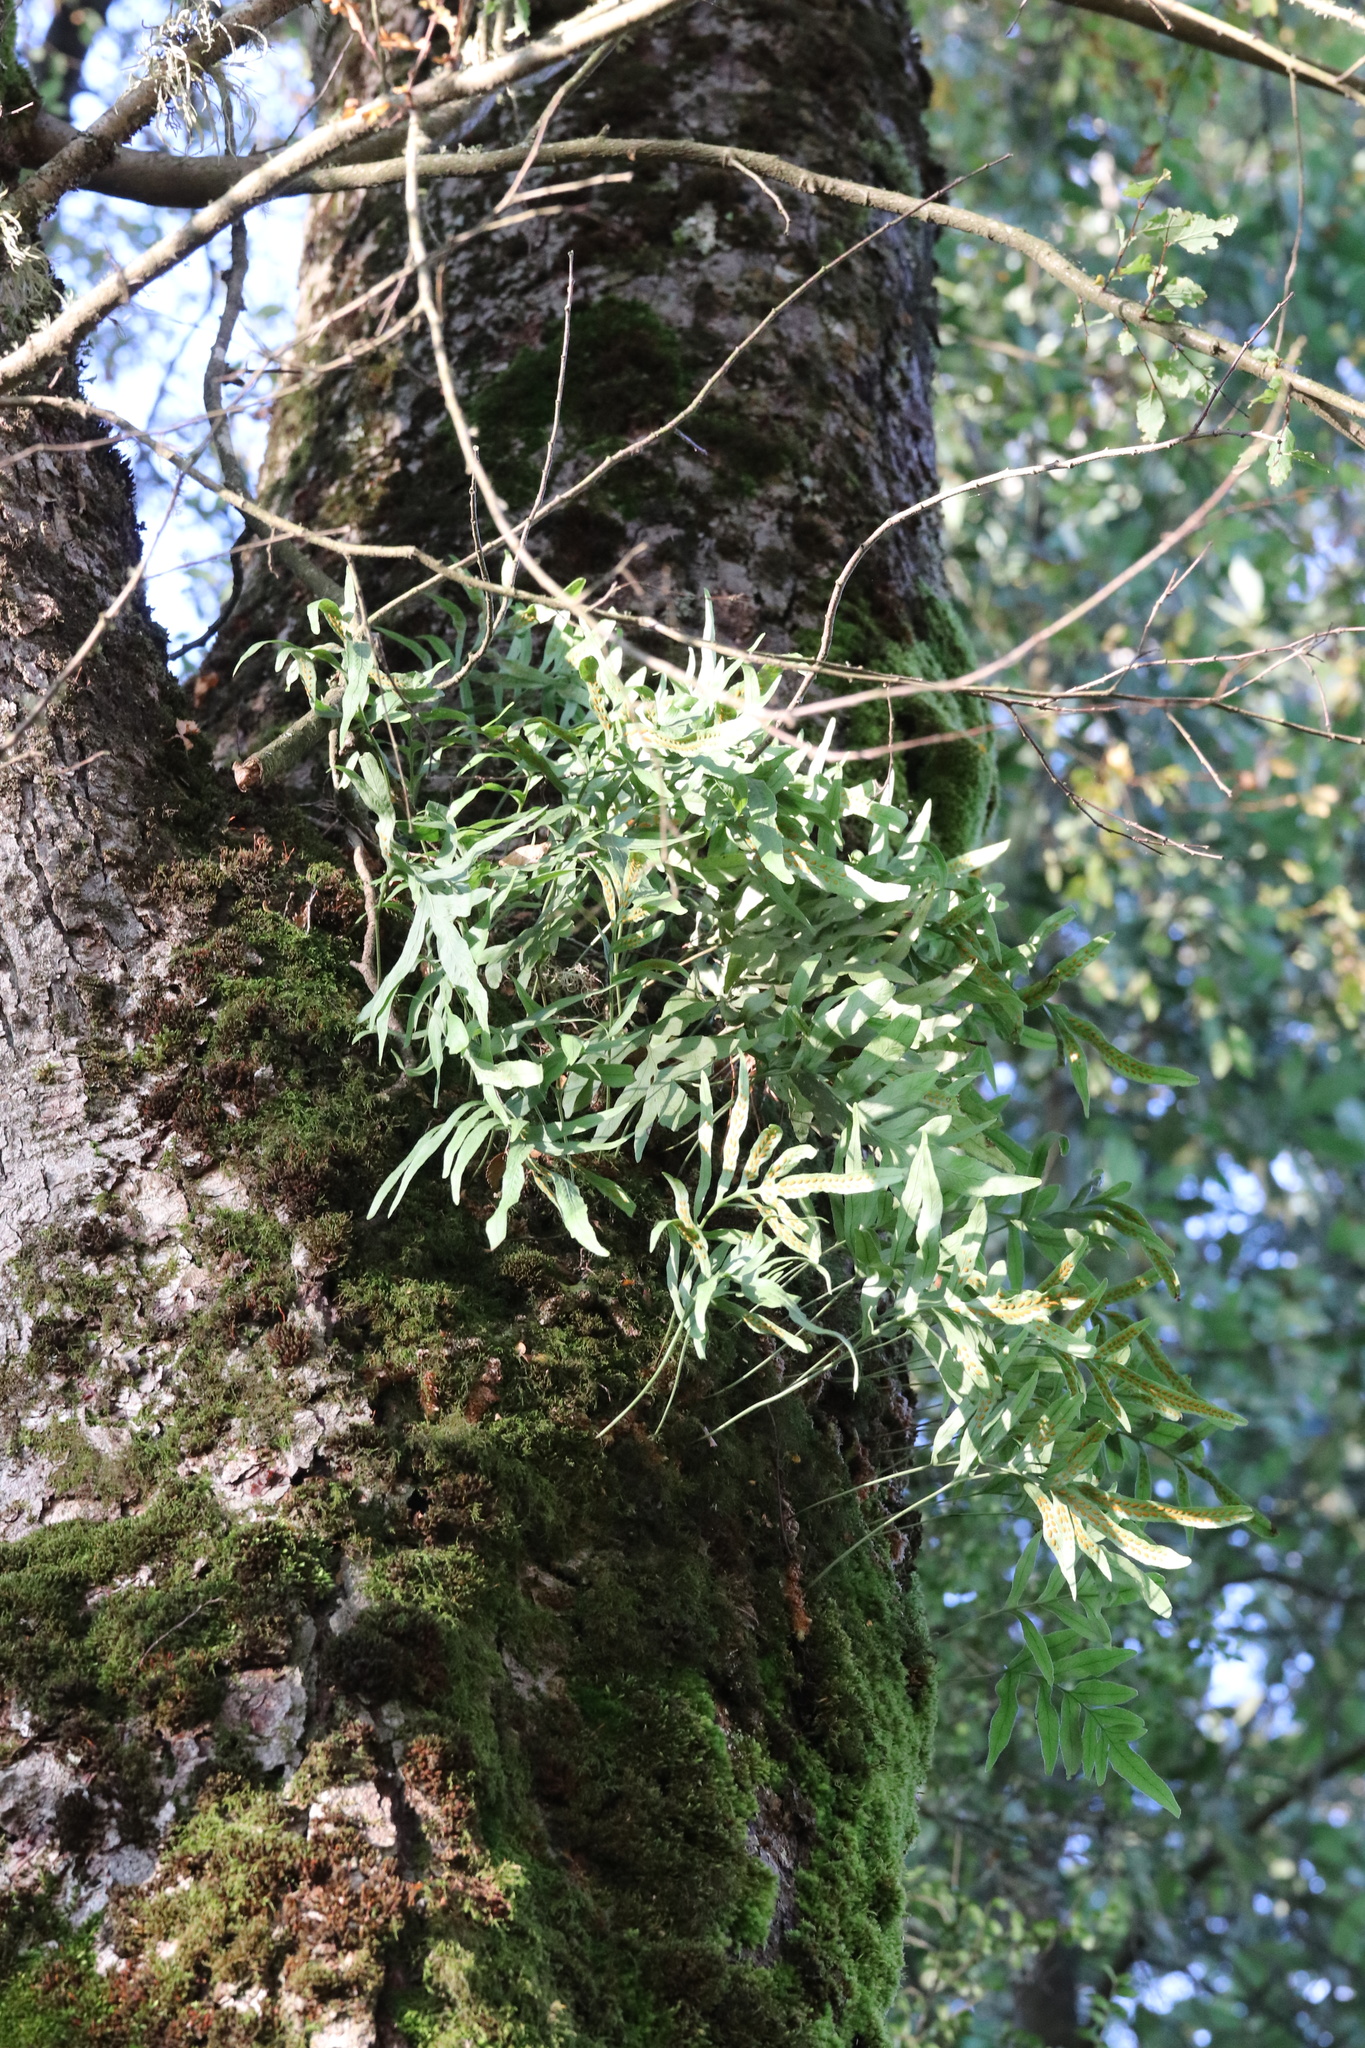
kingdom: Plantae
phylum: Tracheophyta
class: Polypodiopsida
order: Polypodiales
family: Polypodiaceae
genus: Synammia
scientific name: Synammia feuillei
